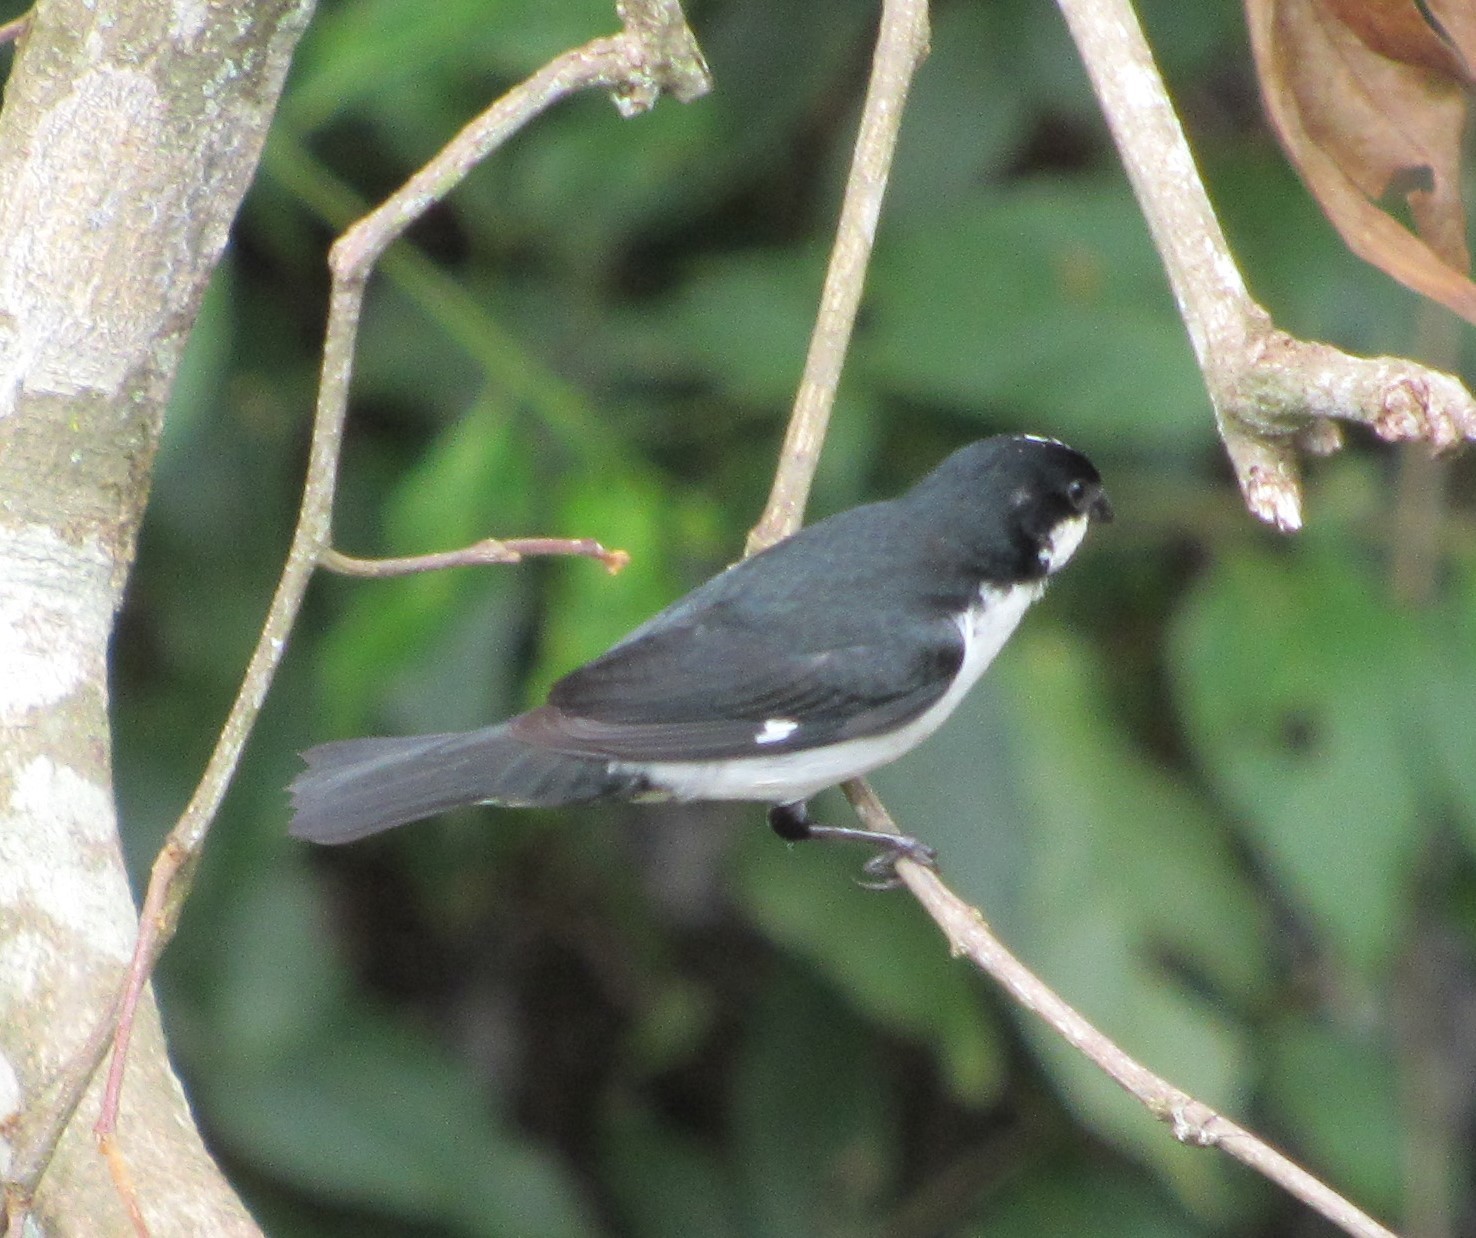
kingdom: Animalia
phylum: Chordata
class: Aves
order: Passeriformes
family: Thraupidae
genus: Sporophila
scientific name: Sporophila lineola
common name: Lined seedeater
